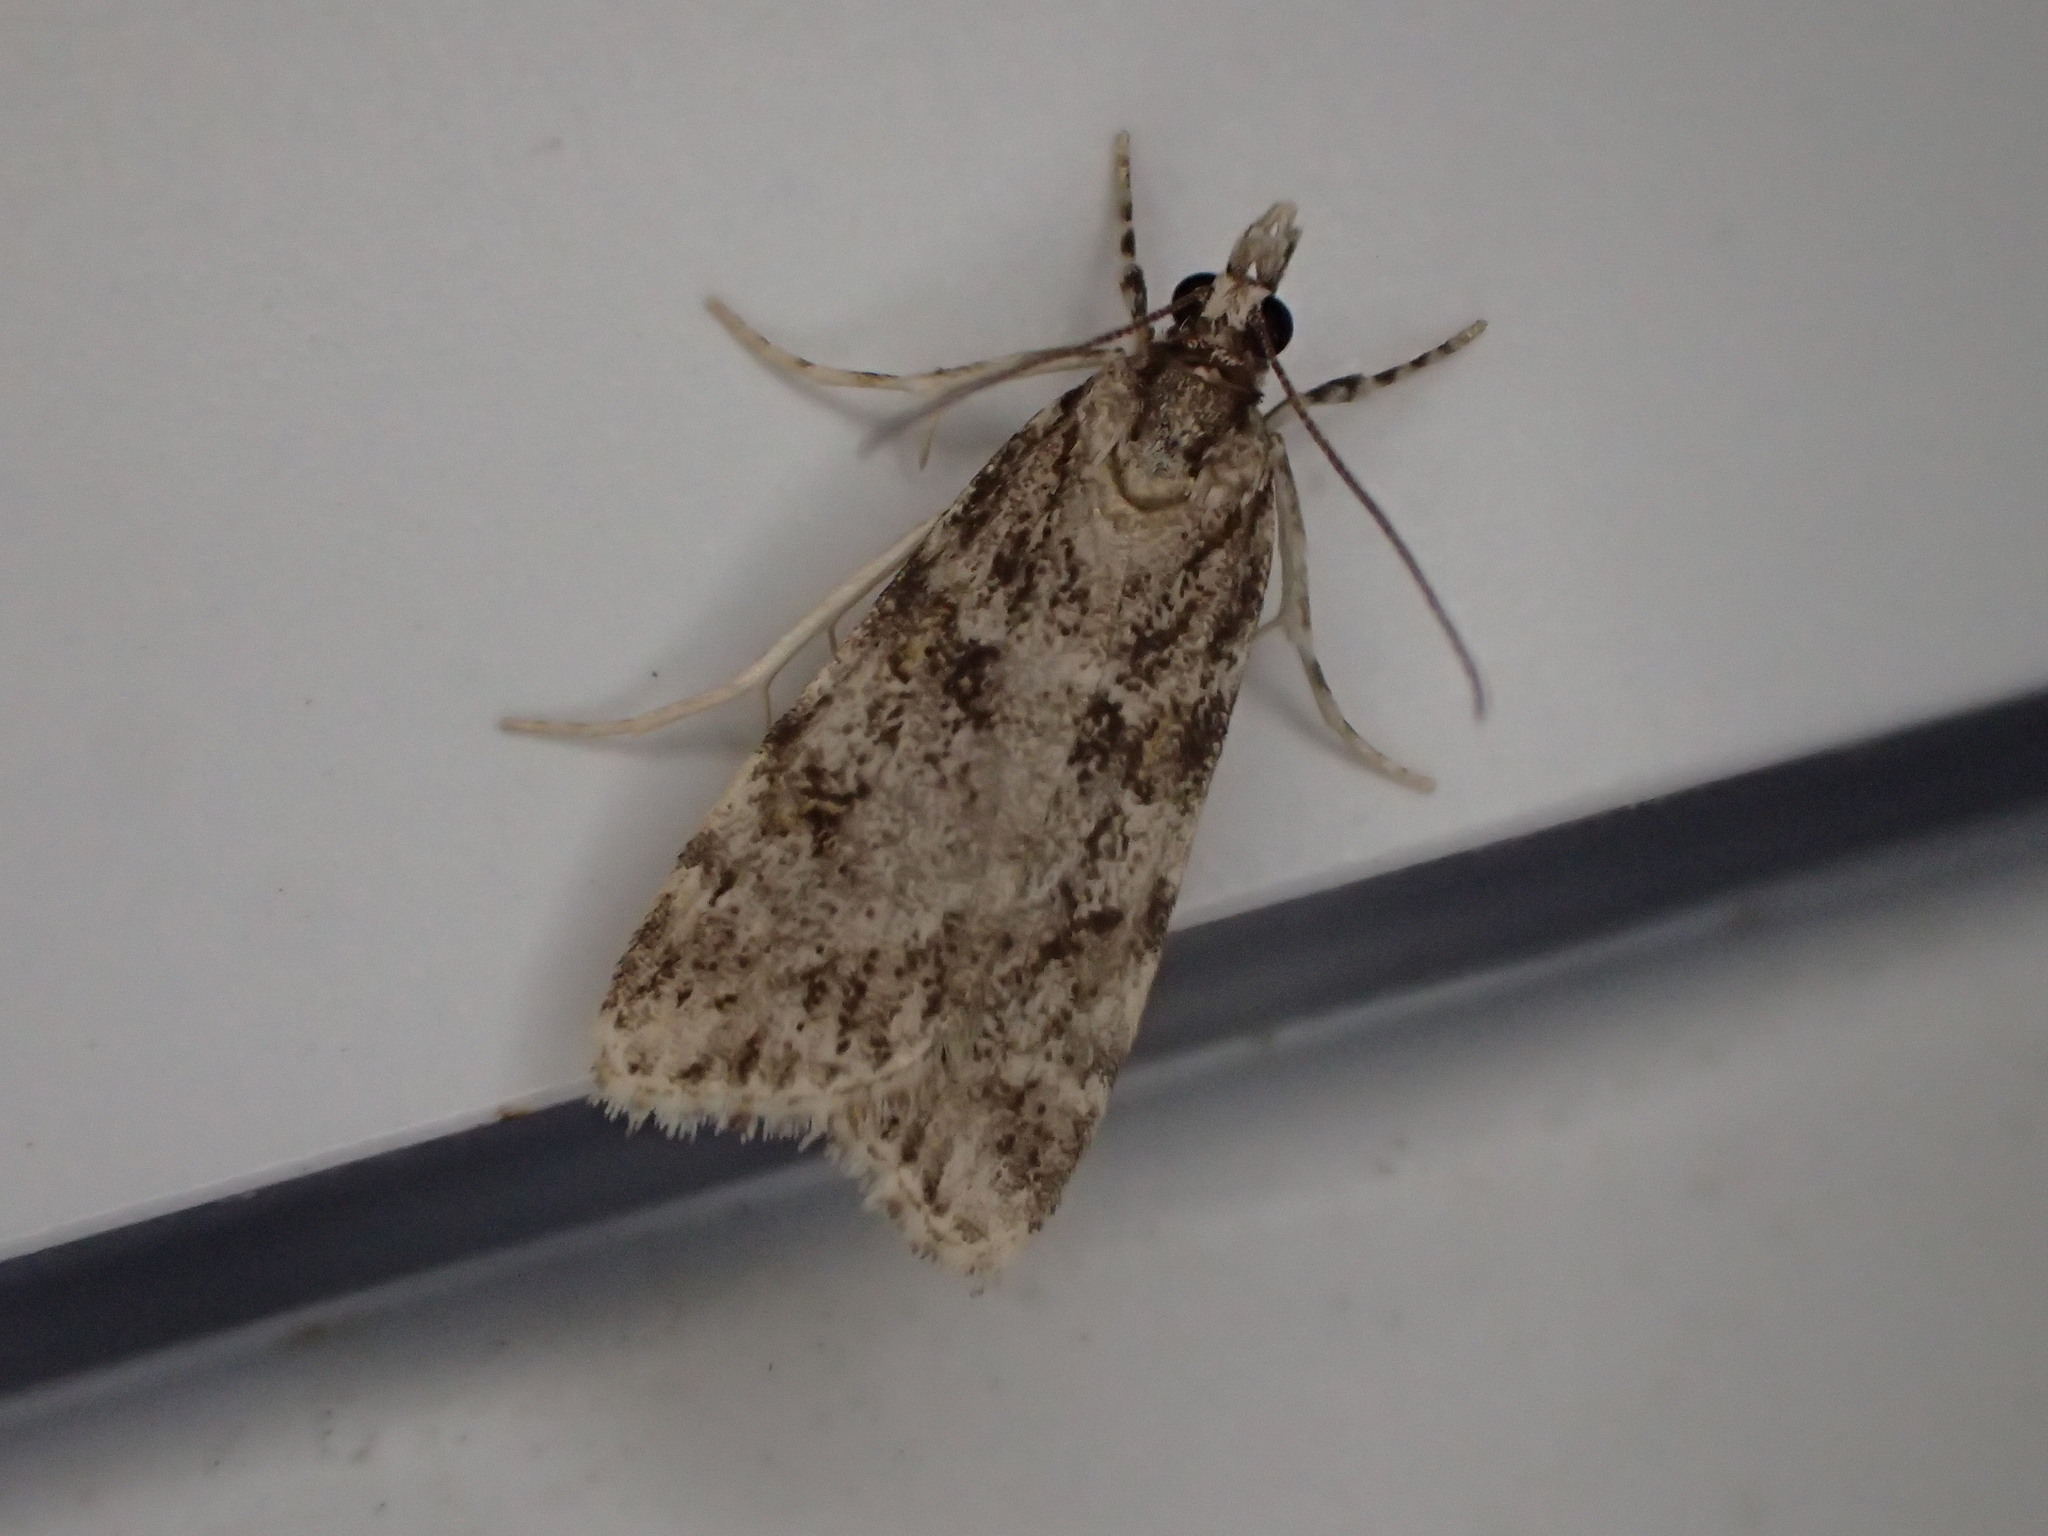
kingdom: Animalia
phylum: Arthropoda
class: Insecta
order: Lepidoptera
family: Crambidae
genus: Scoparia
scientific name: Scoparia biplagialis
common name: Double-striped scoparia moth
